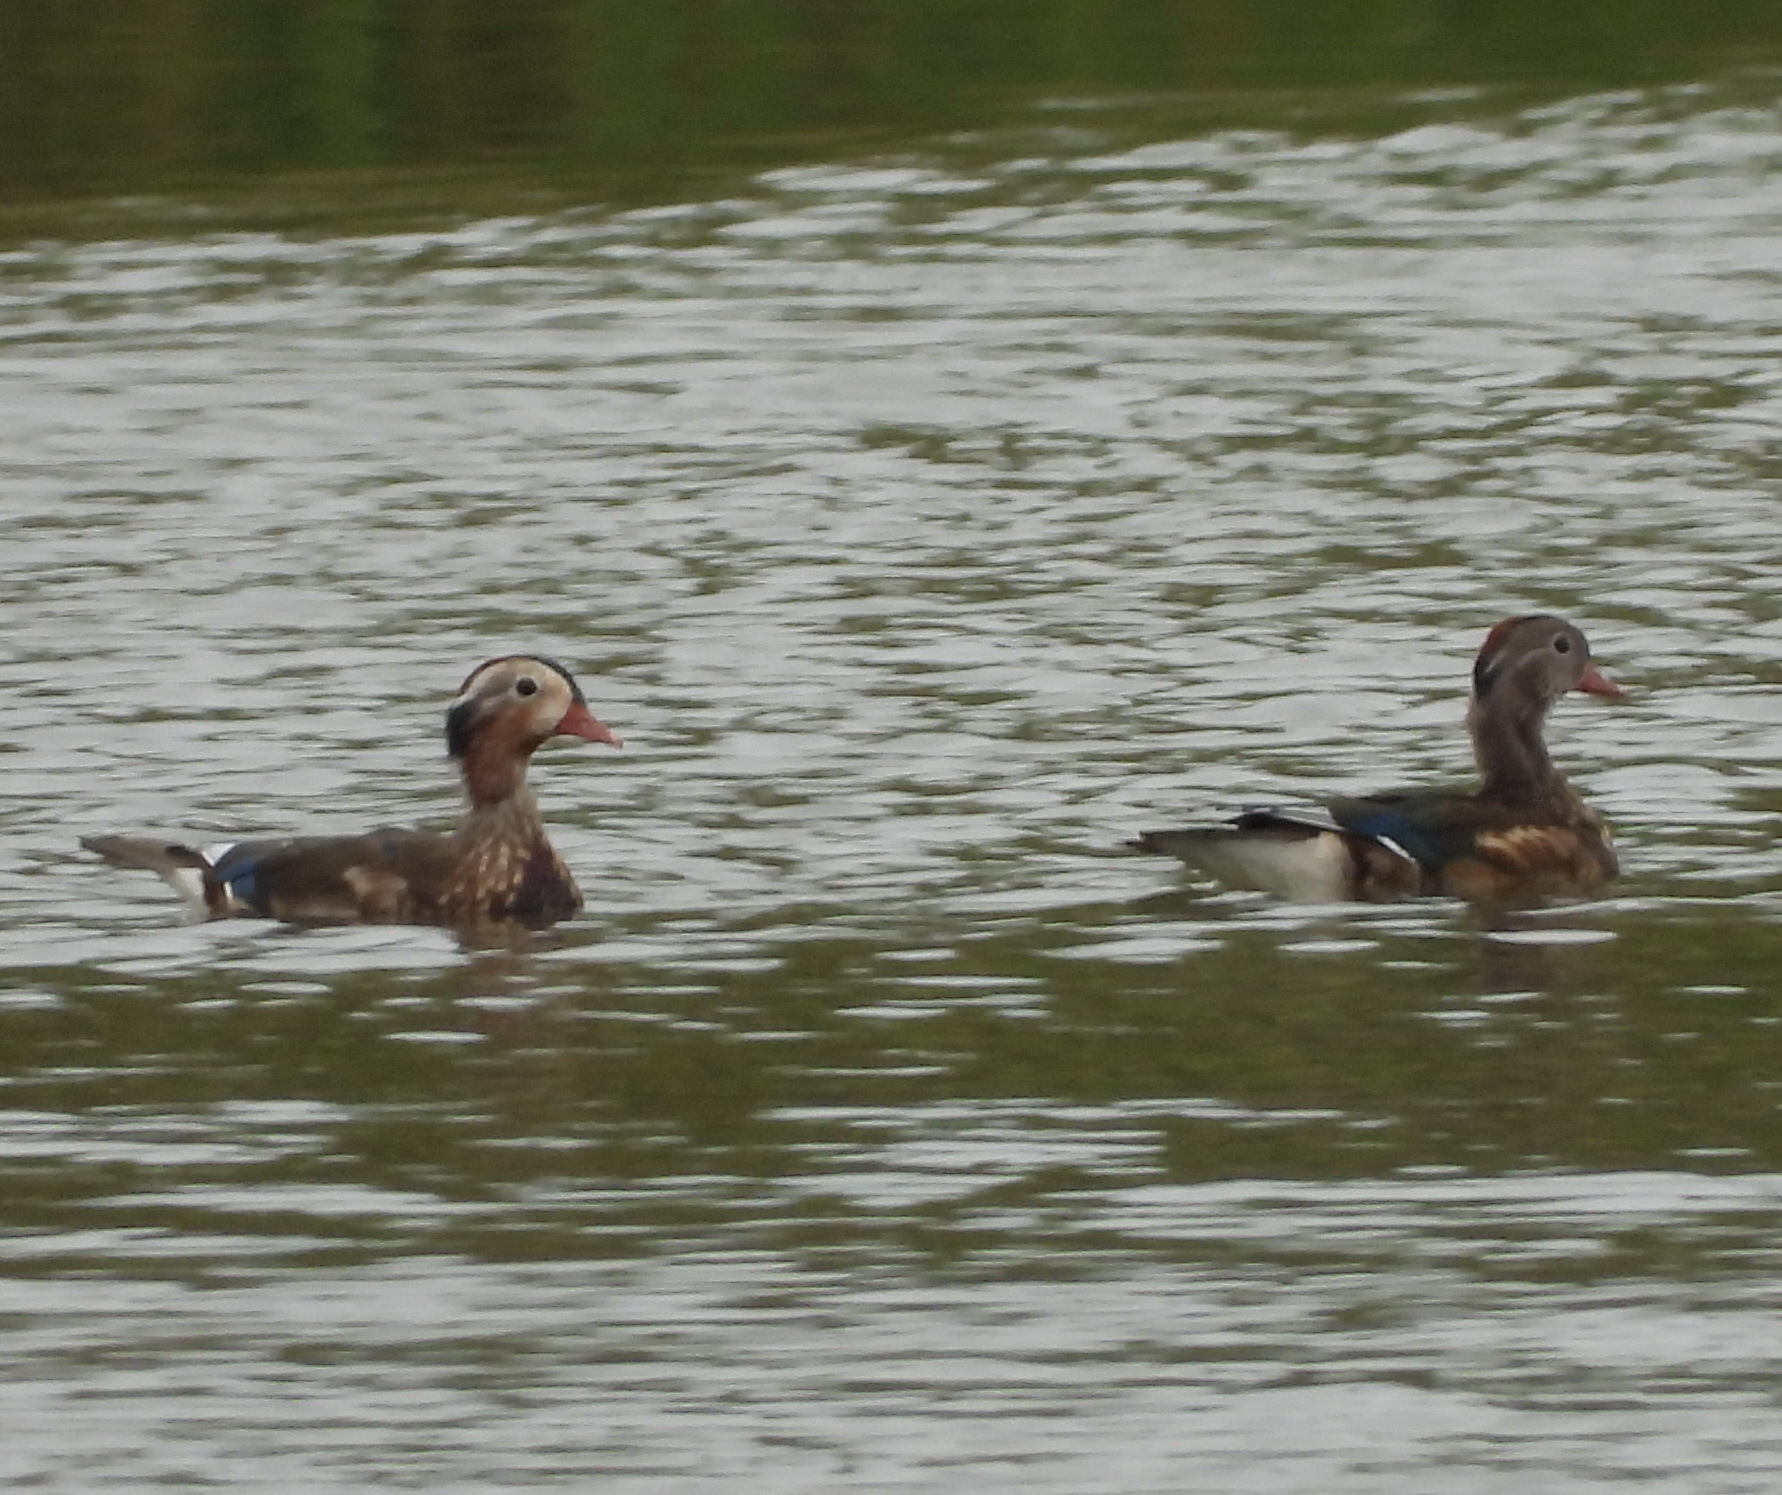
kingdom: Animalia
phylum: Chordata
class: Aves
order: Anseriformes
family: Anatidae
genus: Aix
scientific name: Aix galericulata
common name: Mandarin duck
